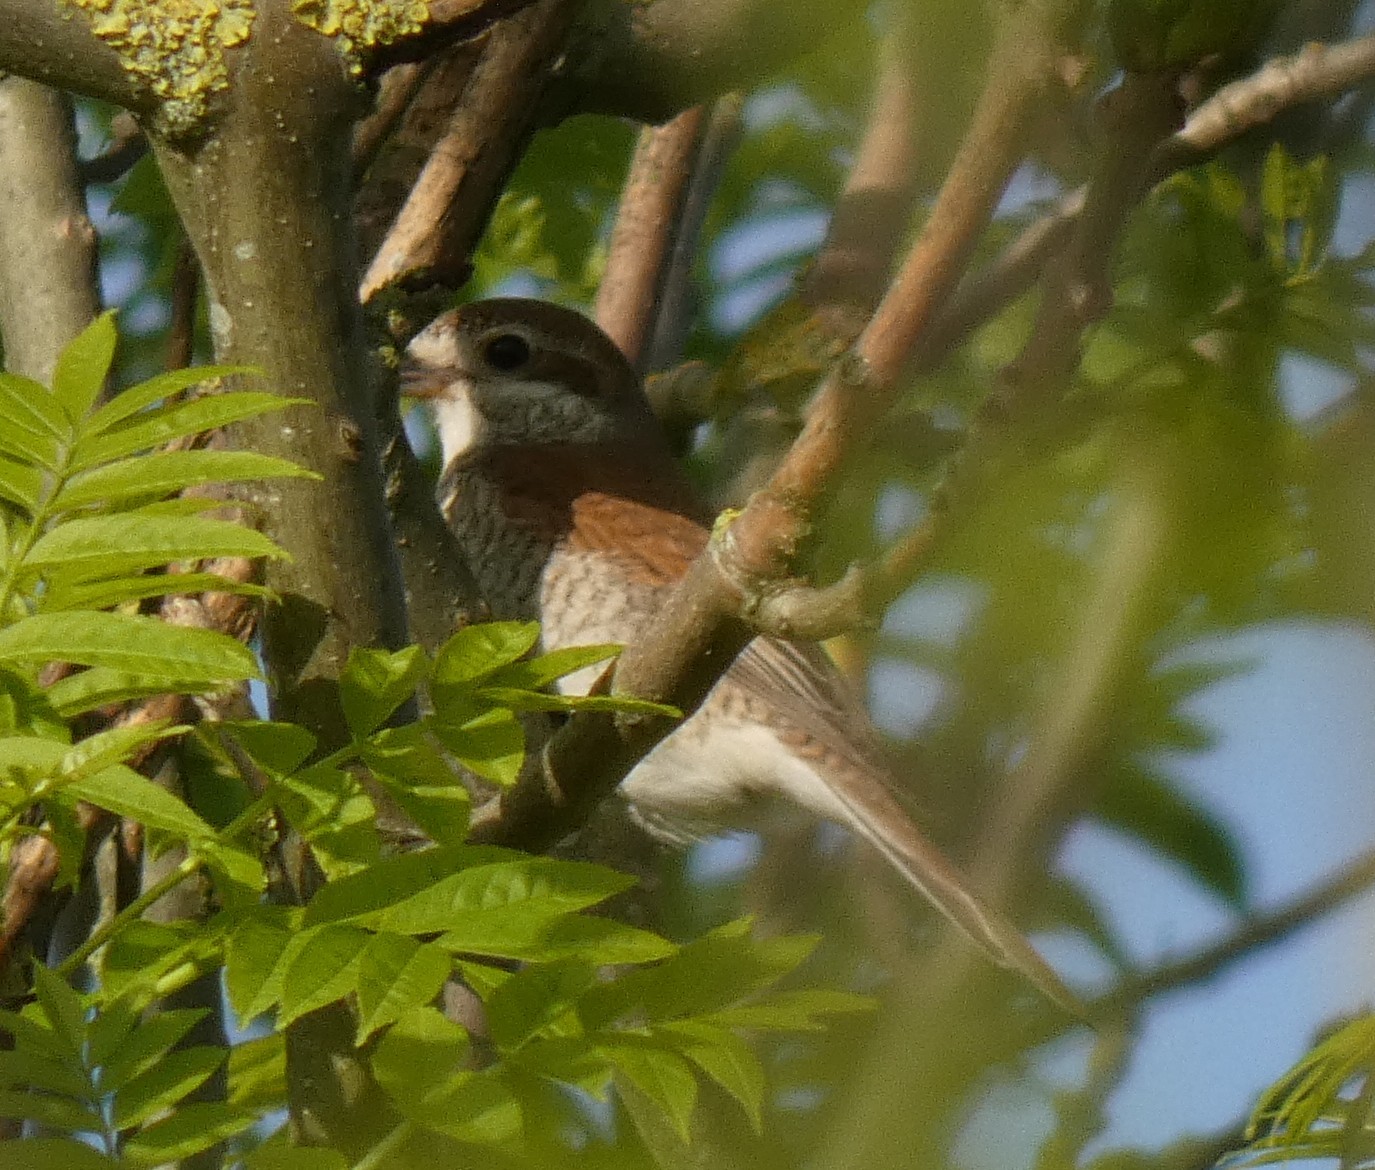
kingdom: Animalia
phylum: Chordata
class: Aves
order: Passeriformes
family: Laniidae
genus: Lanius
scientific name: Lanius collurio
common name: Red-backed shrike
